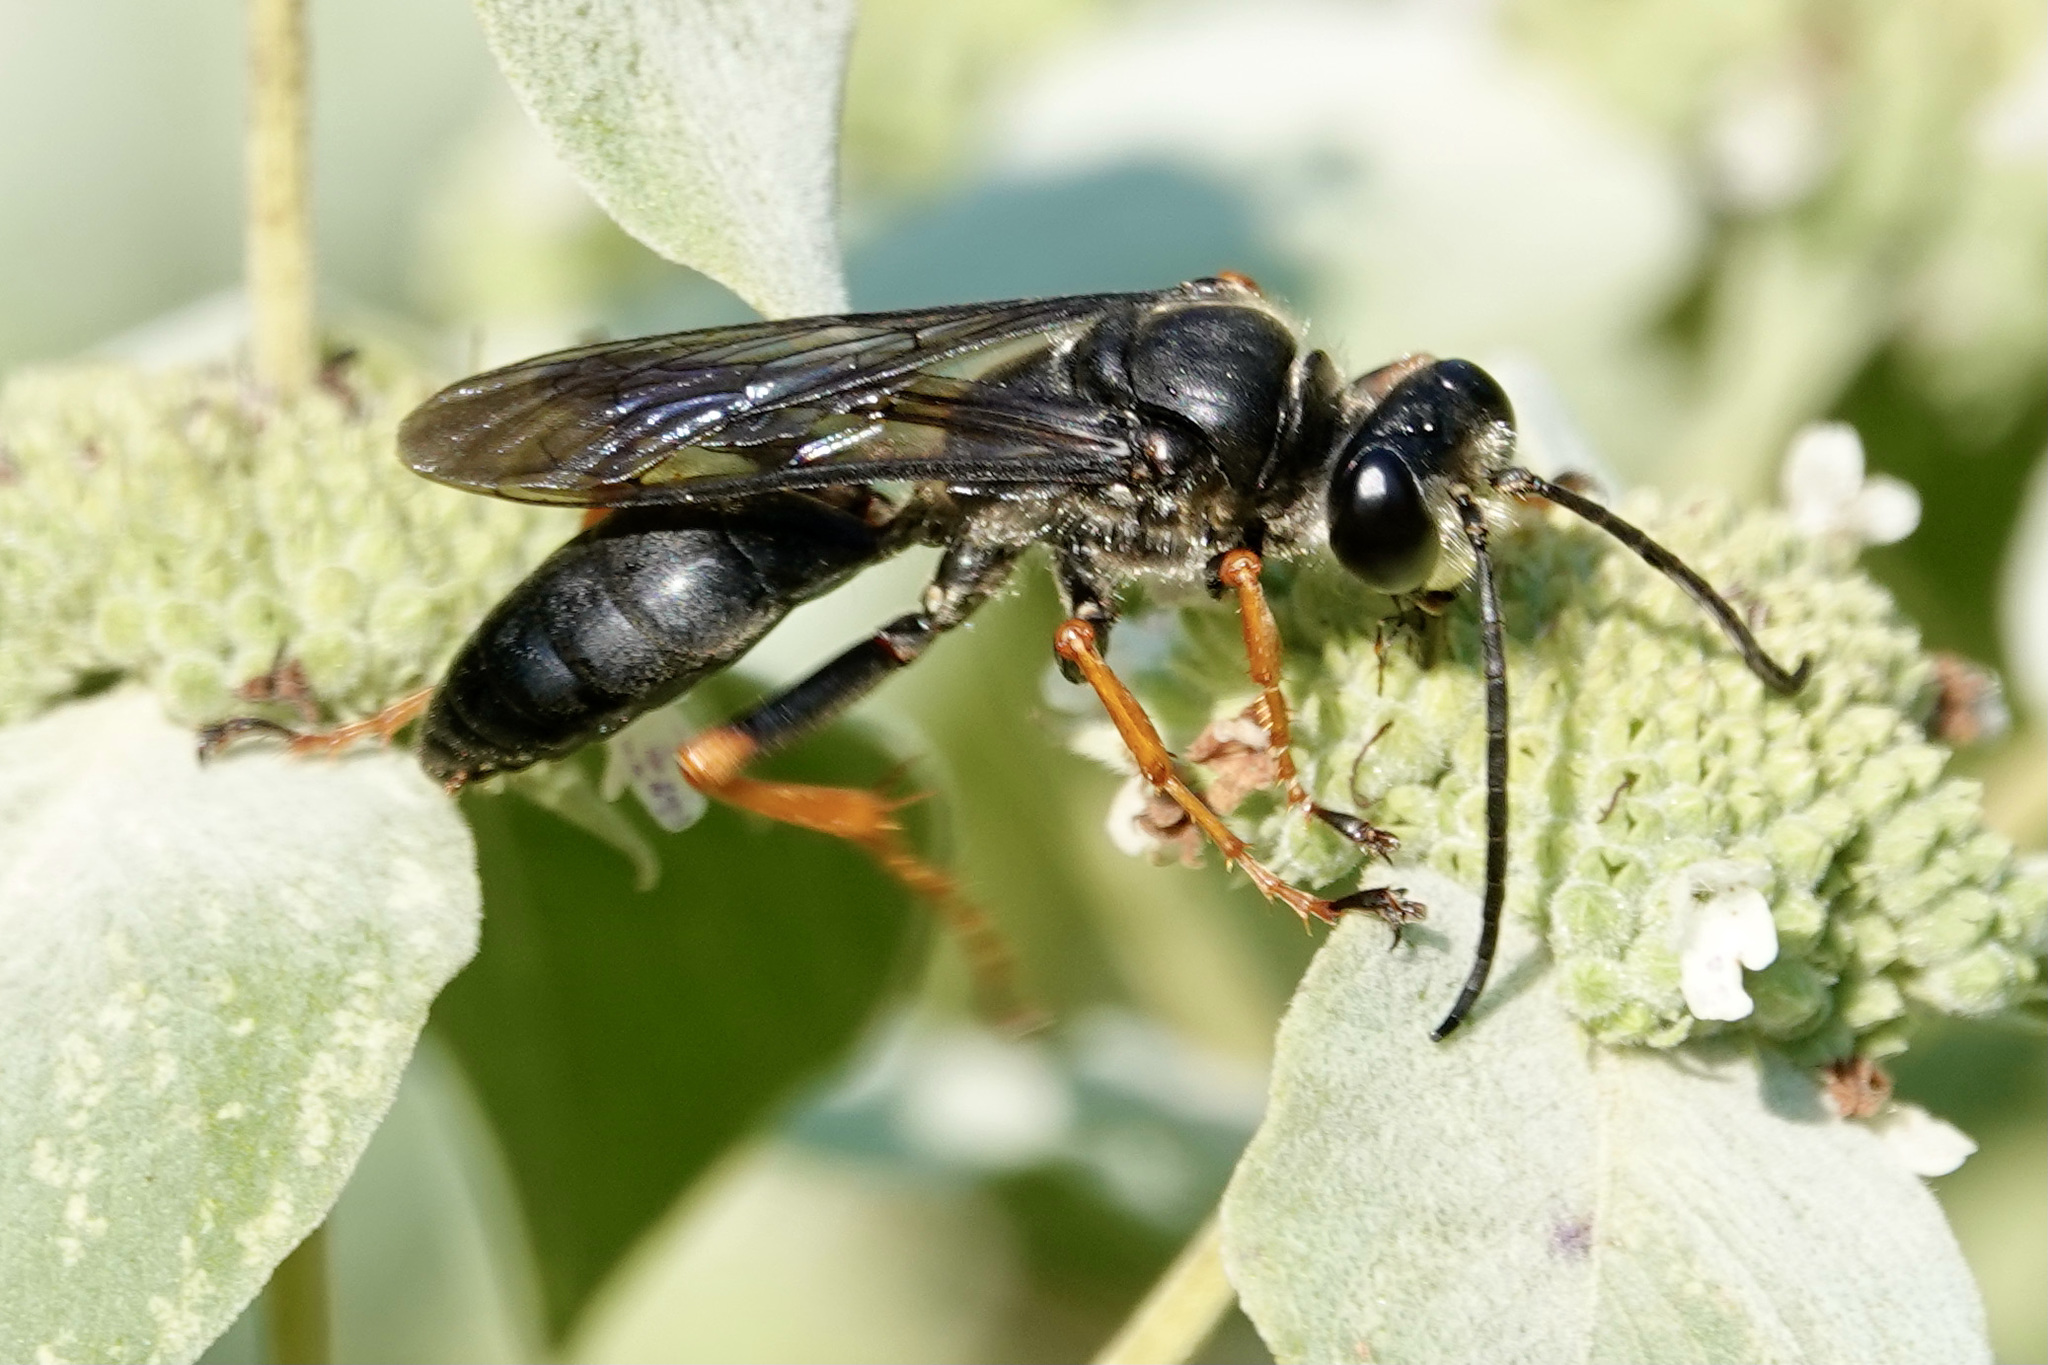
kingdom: Animalia
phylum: Arthropoda
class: Insecta
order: Hymenoptera
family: Sphecidae
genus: Sphex
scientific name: Sphex nudus
